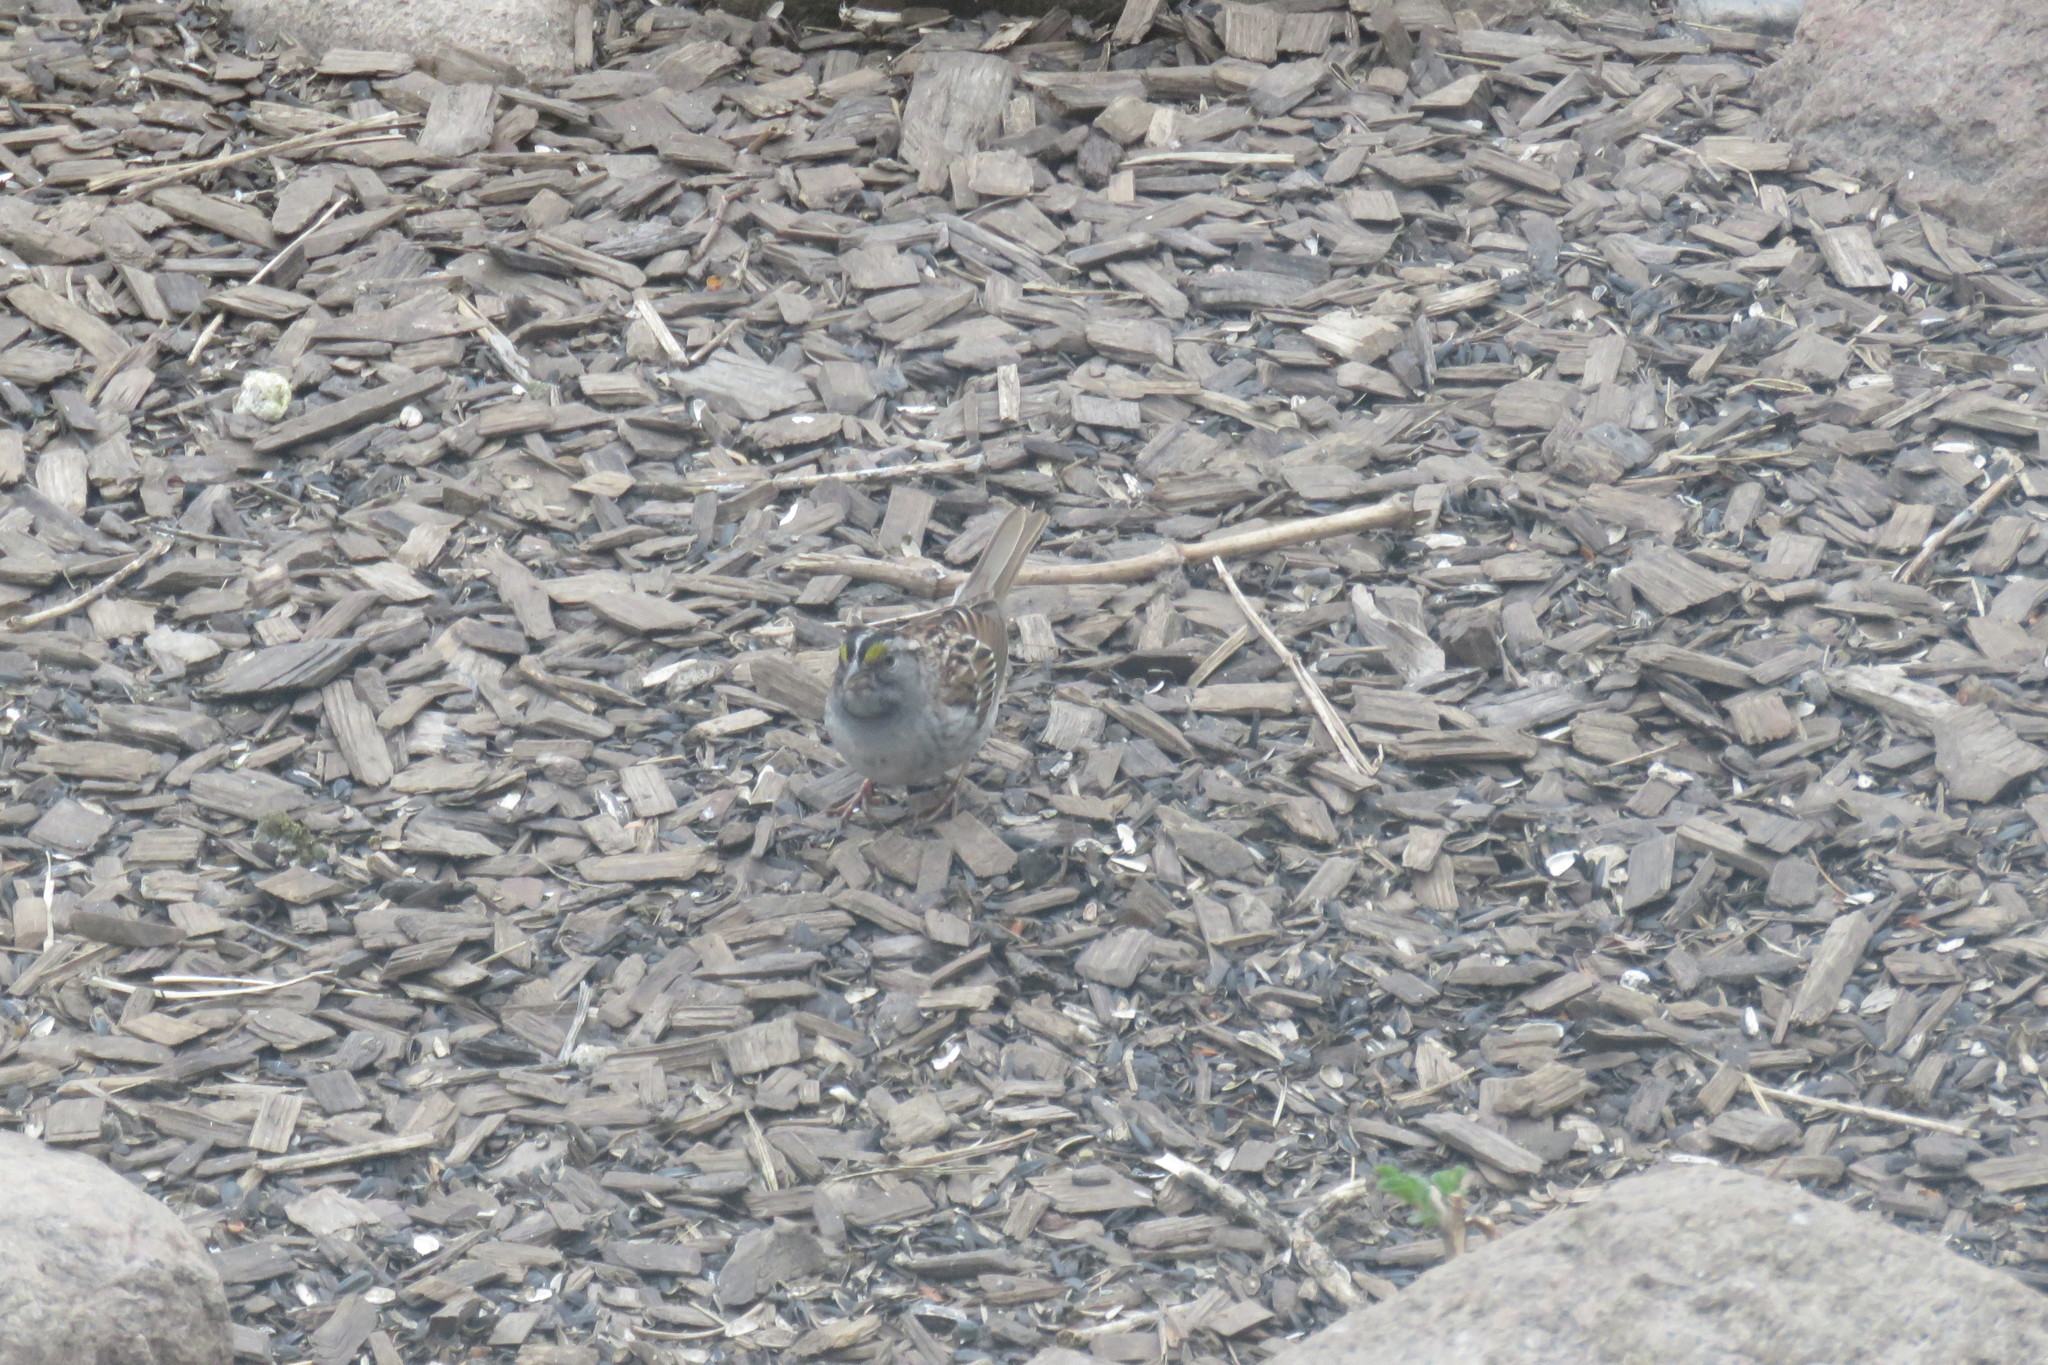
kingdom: Animalia
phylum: Chordata
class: Aves
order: Passeriformes
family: Passerellidae
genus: Zonotrichia
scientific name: Zonotrichia albicollis
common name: White-throated sparrow
